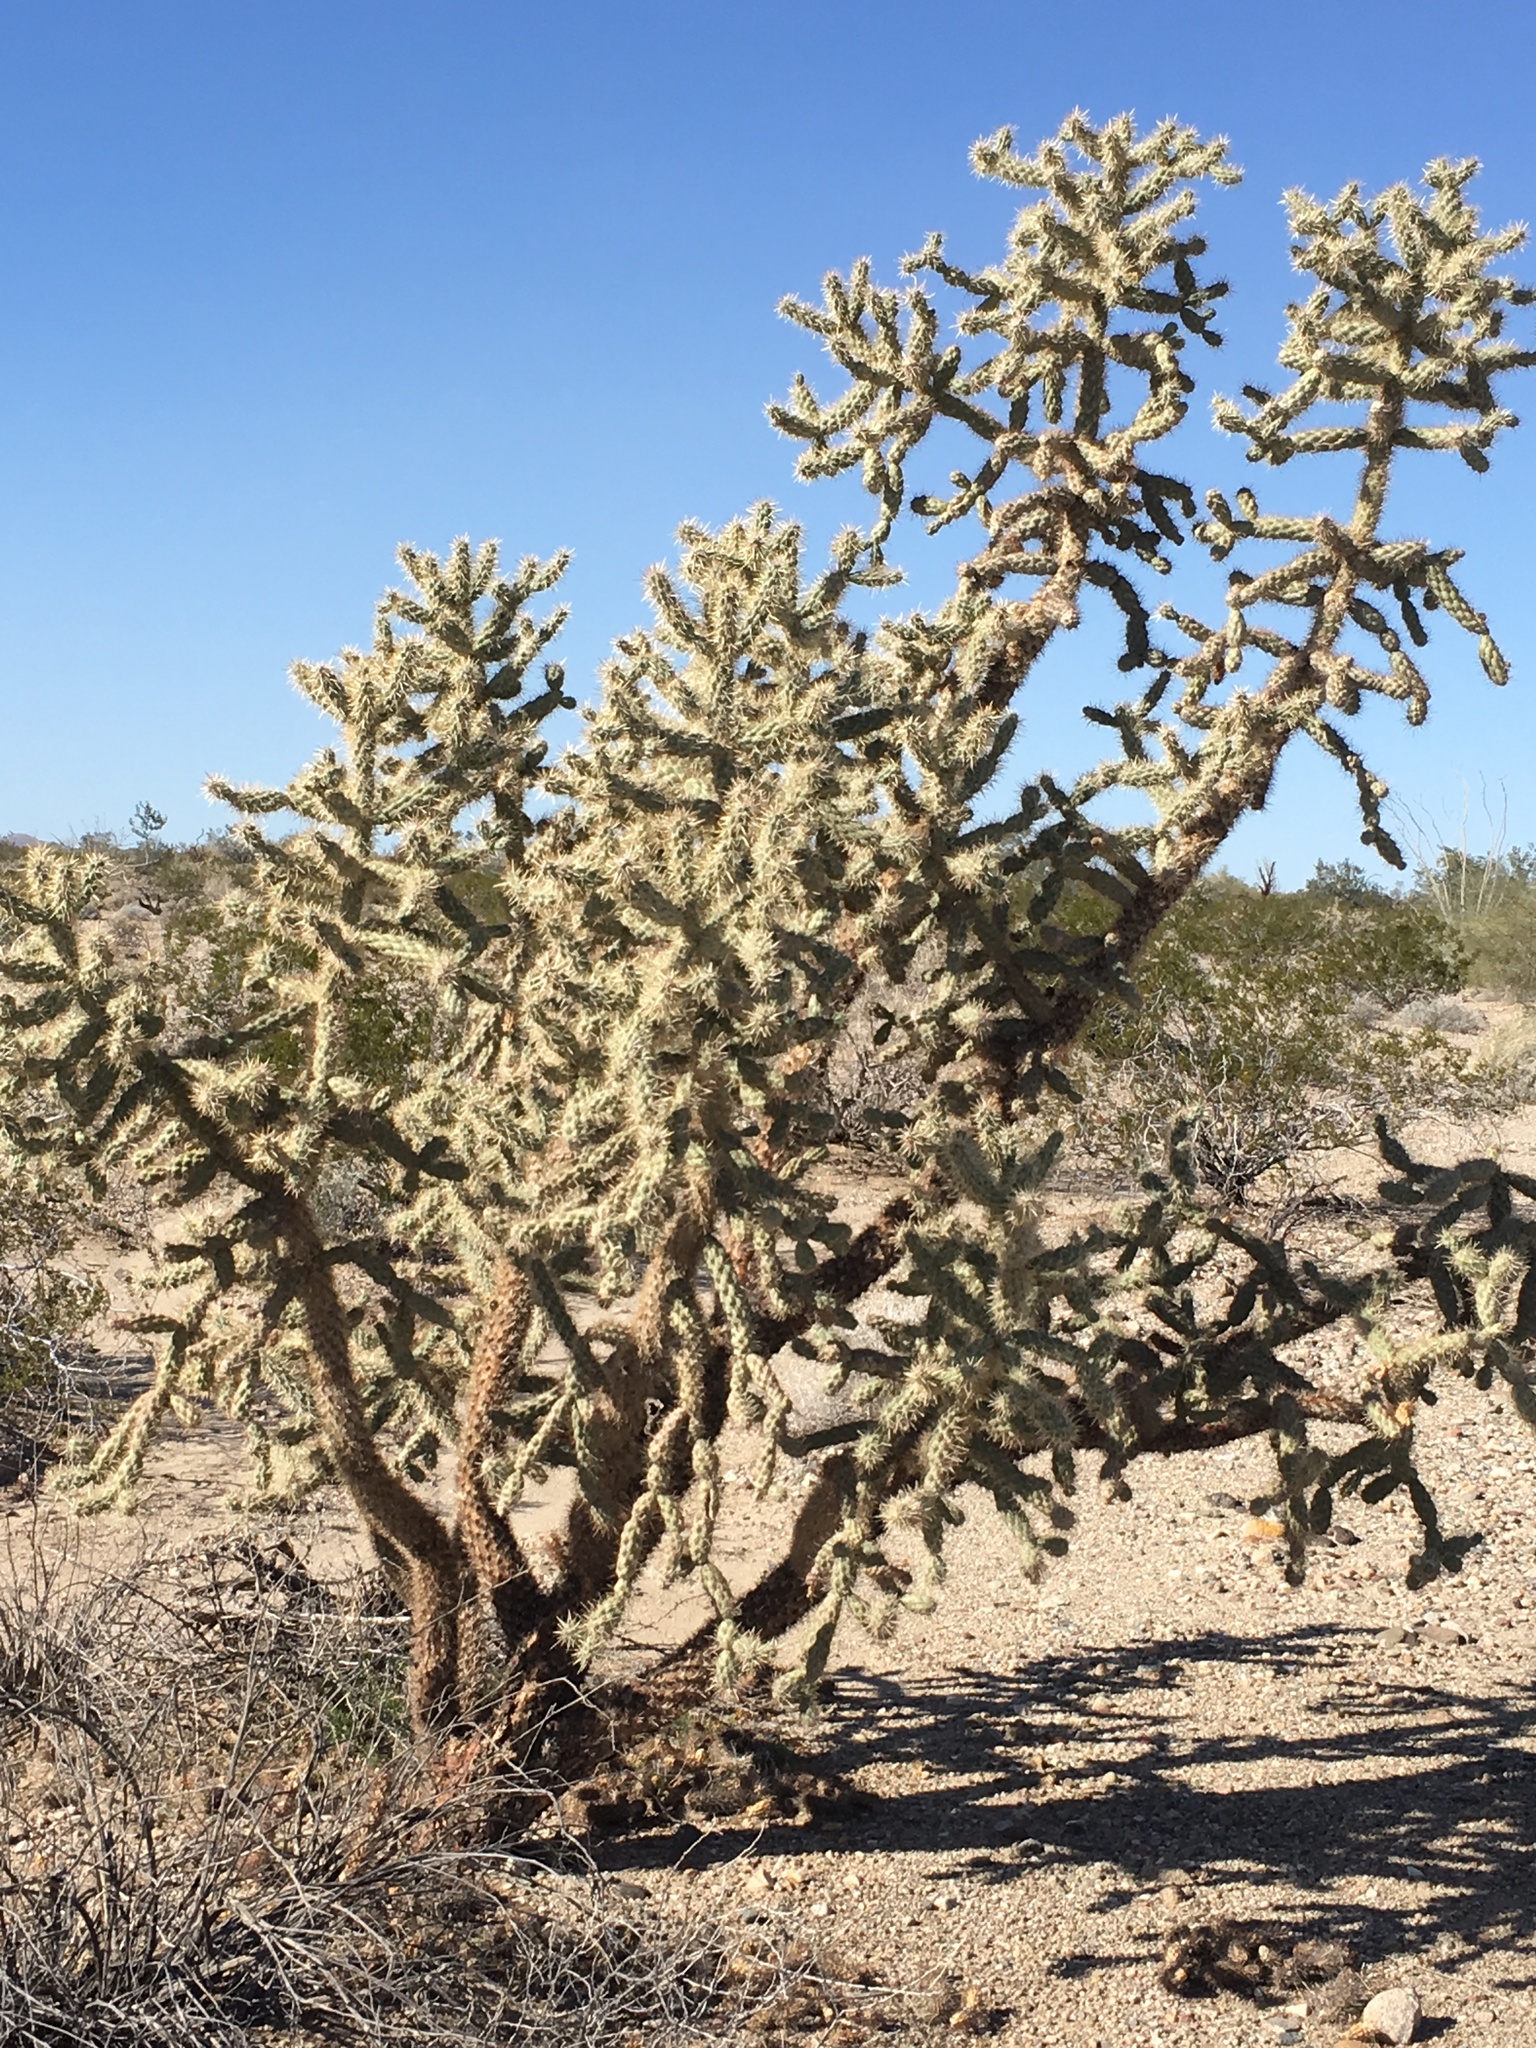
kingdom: Plantae
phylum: Tracheophyta
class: Magnoliopsida
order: Caryophyllales
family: Cactaceae
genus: Cylindropuntia
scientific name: Cylindropuntia munzii
